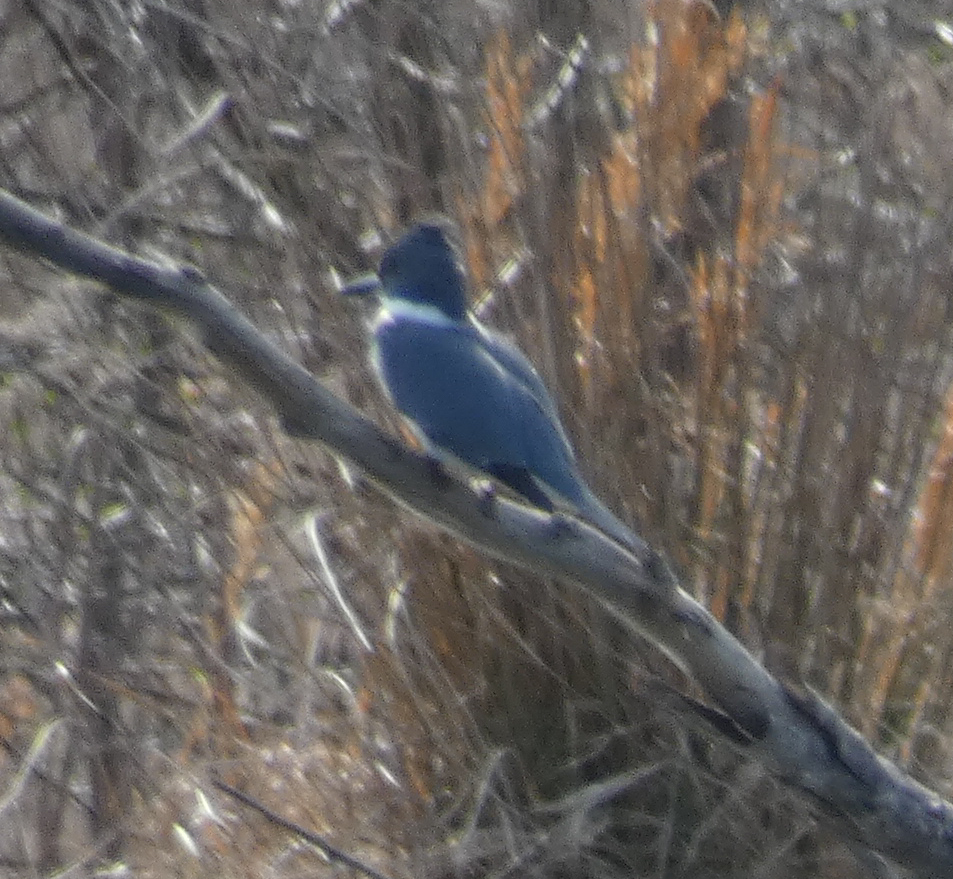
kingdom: Animalia
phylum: Chordata
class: Aves
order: Coraciiformes
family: Alcedinidae
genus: Megaceryle
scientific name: Megaceryle alcyon
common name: Belted kingfisher
